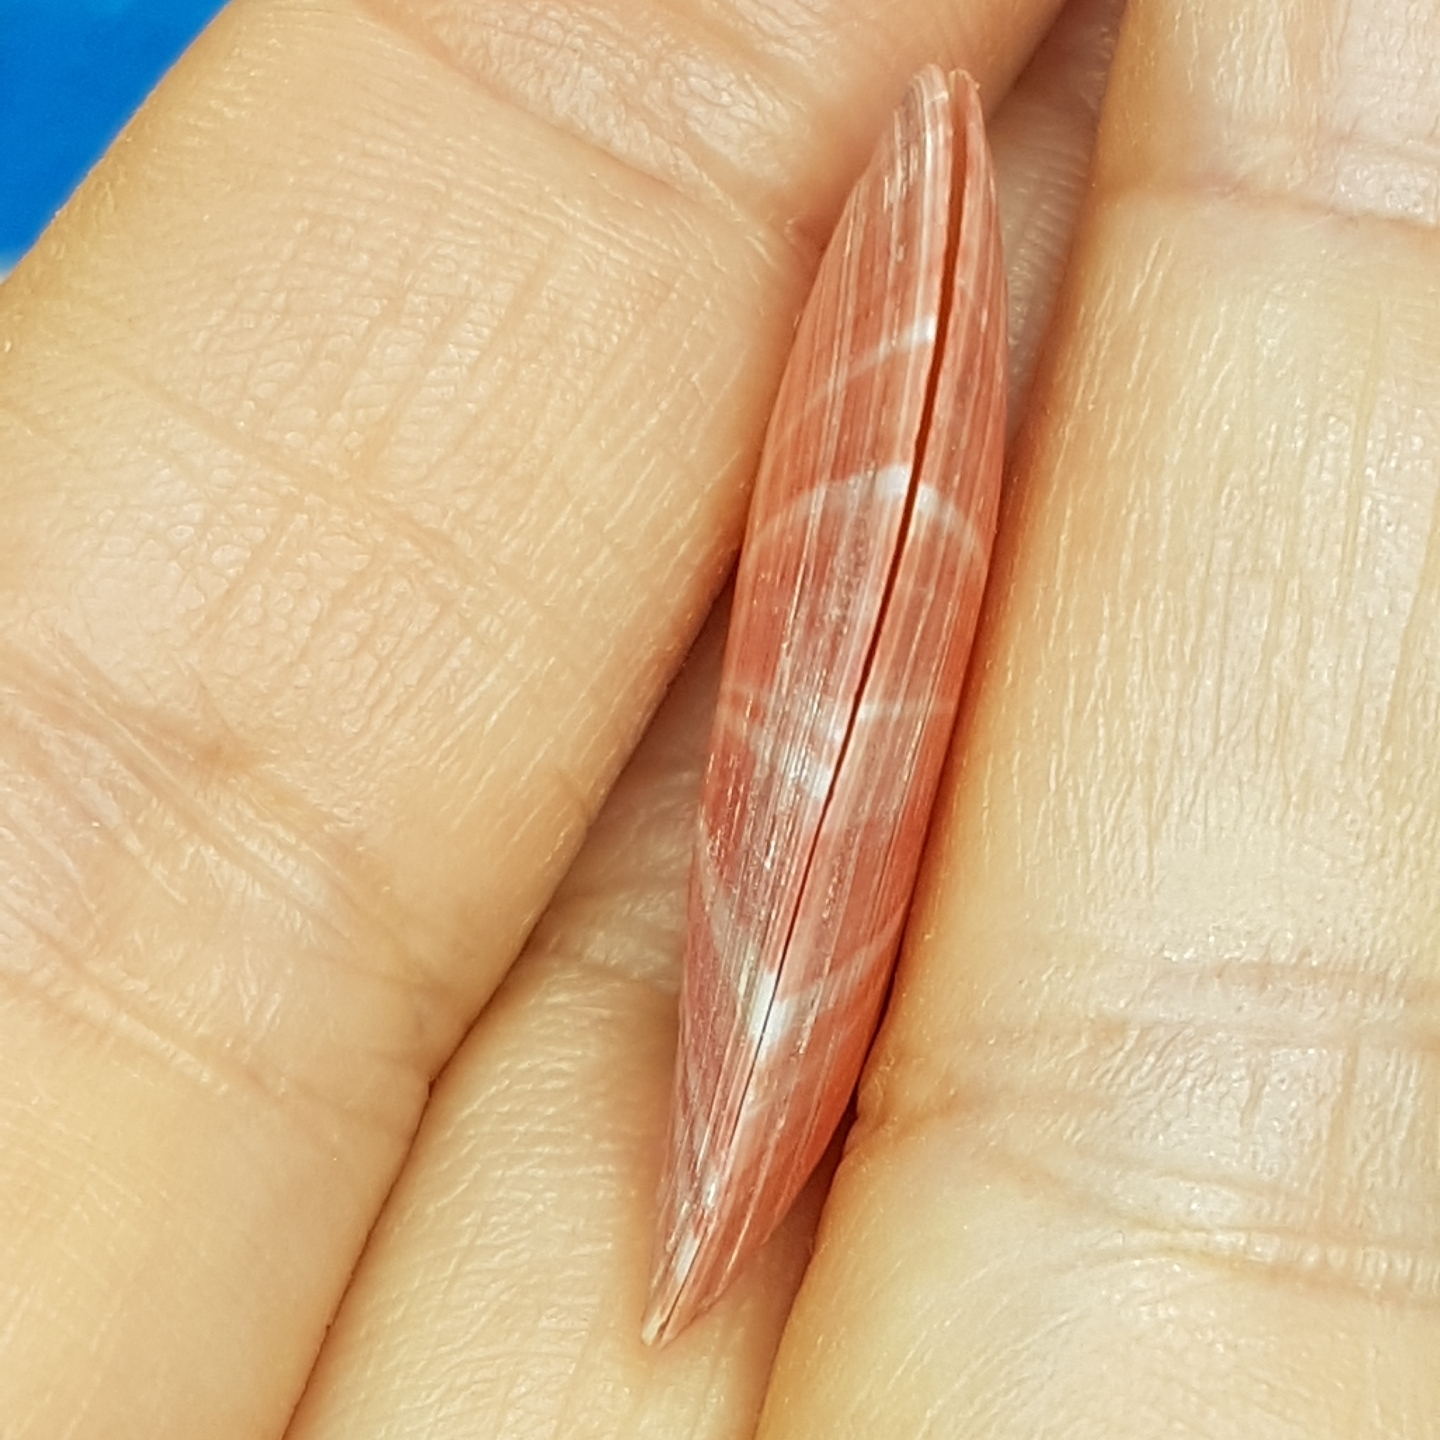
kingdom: Animalia
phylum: Mollusca
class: Bivalvia
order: Cardiida
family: Tellinidae
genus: Moerella
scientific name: Moerella pulchella
